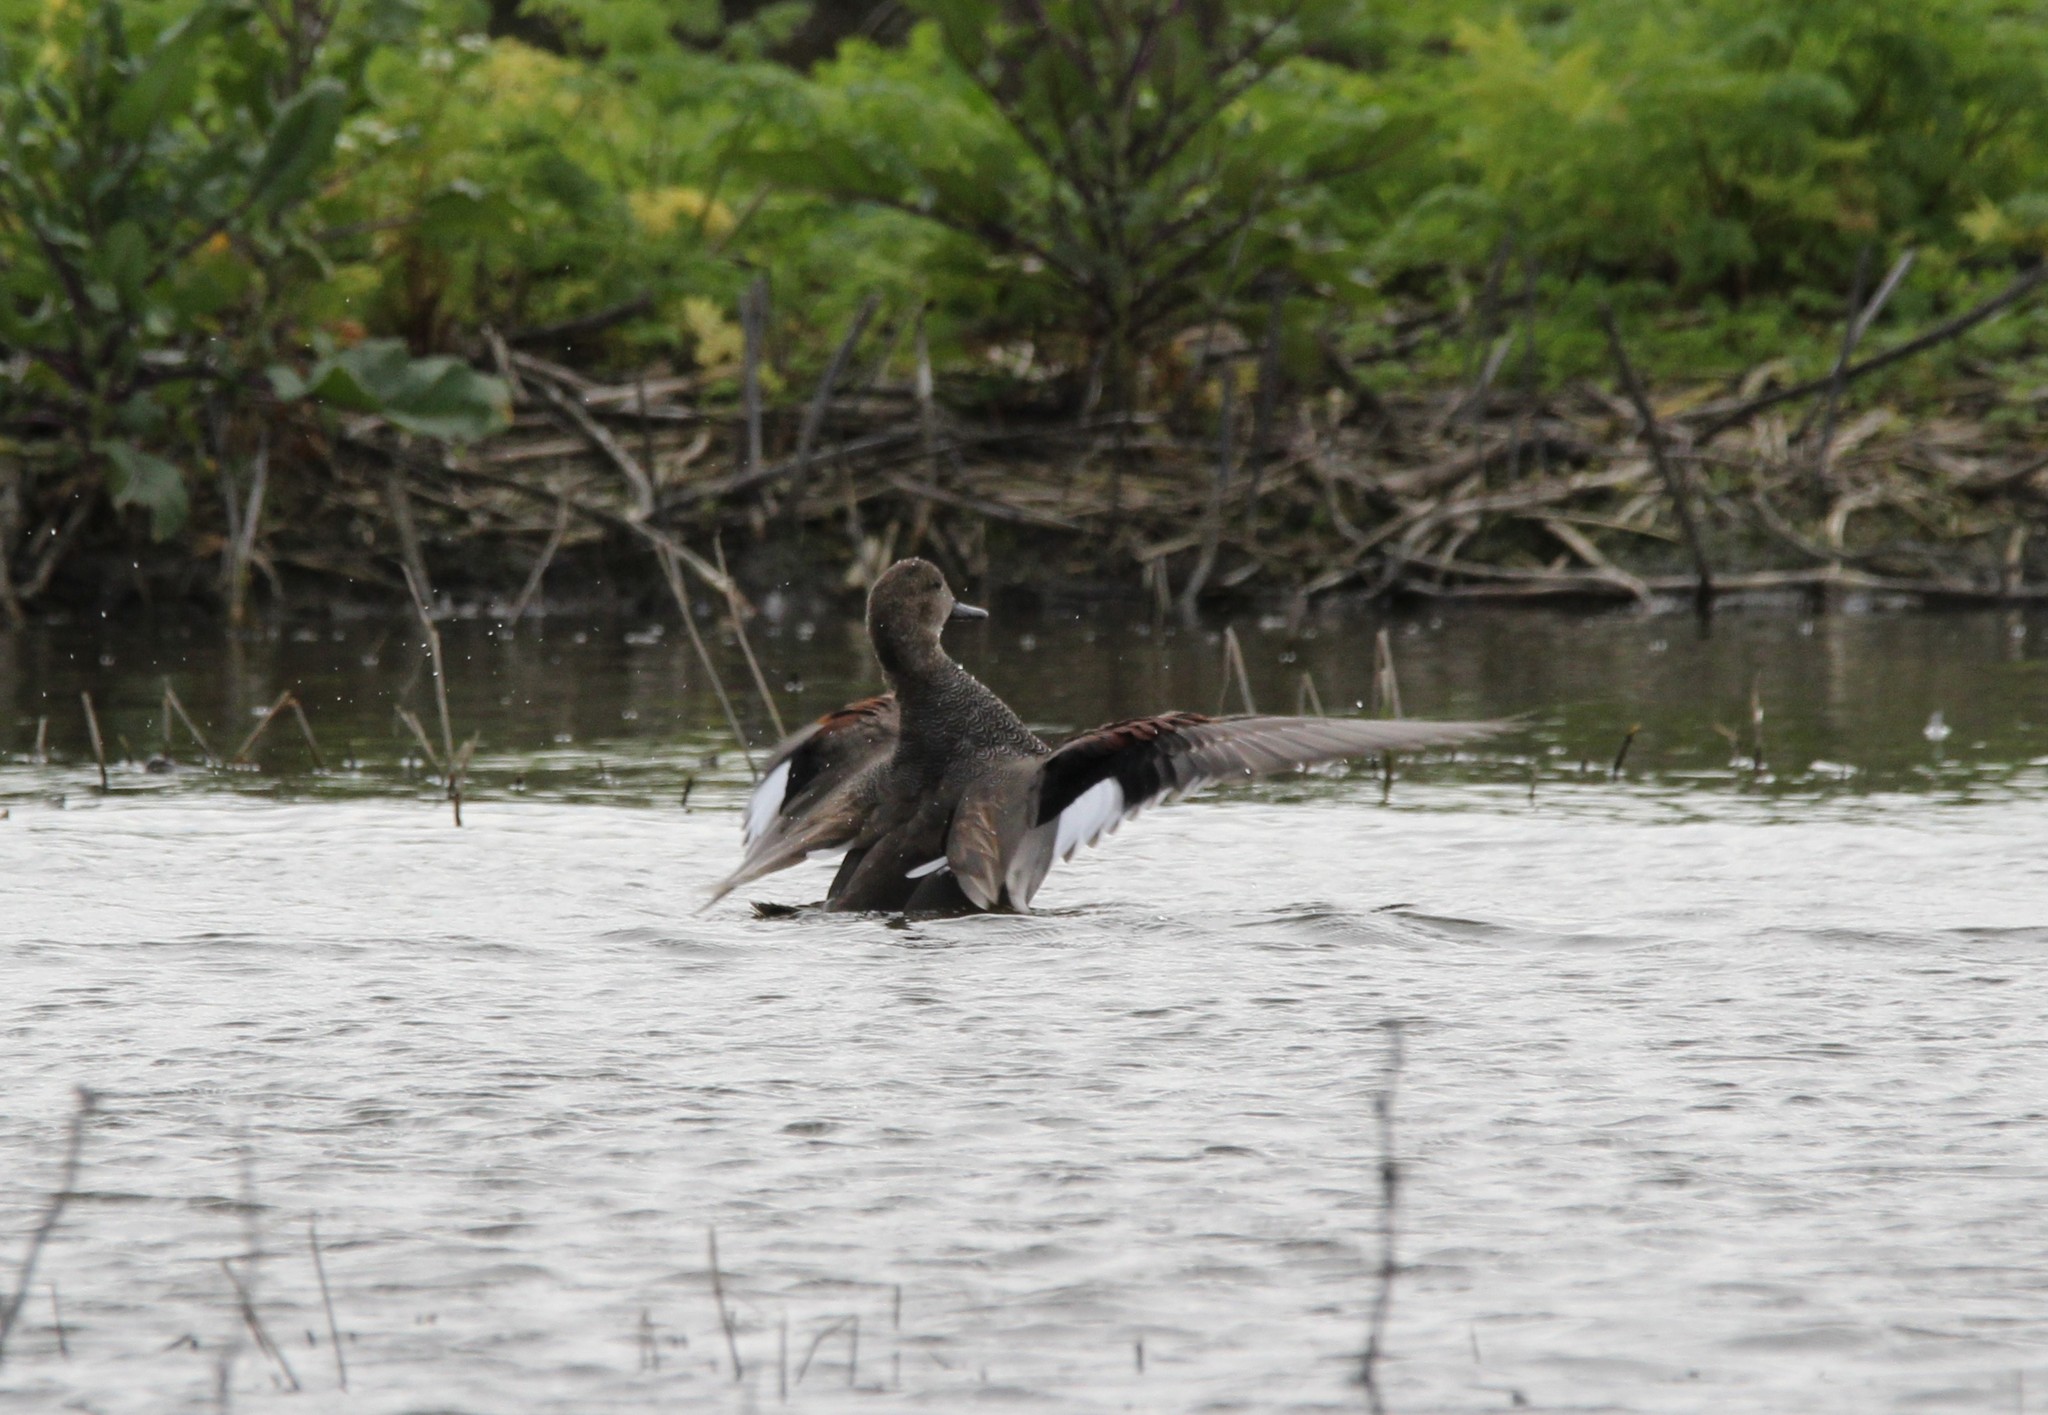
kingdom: Animalia
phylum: Chordata
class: Aves
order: Anseriformes
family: Anatidae
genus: Mareca
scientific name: Mareca strepera
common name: Gadwall
